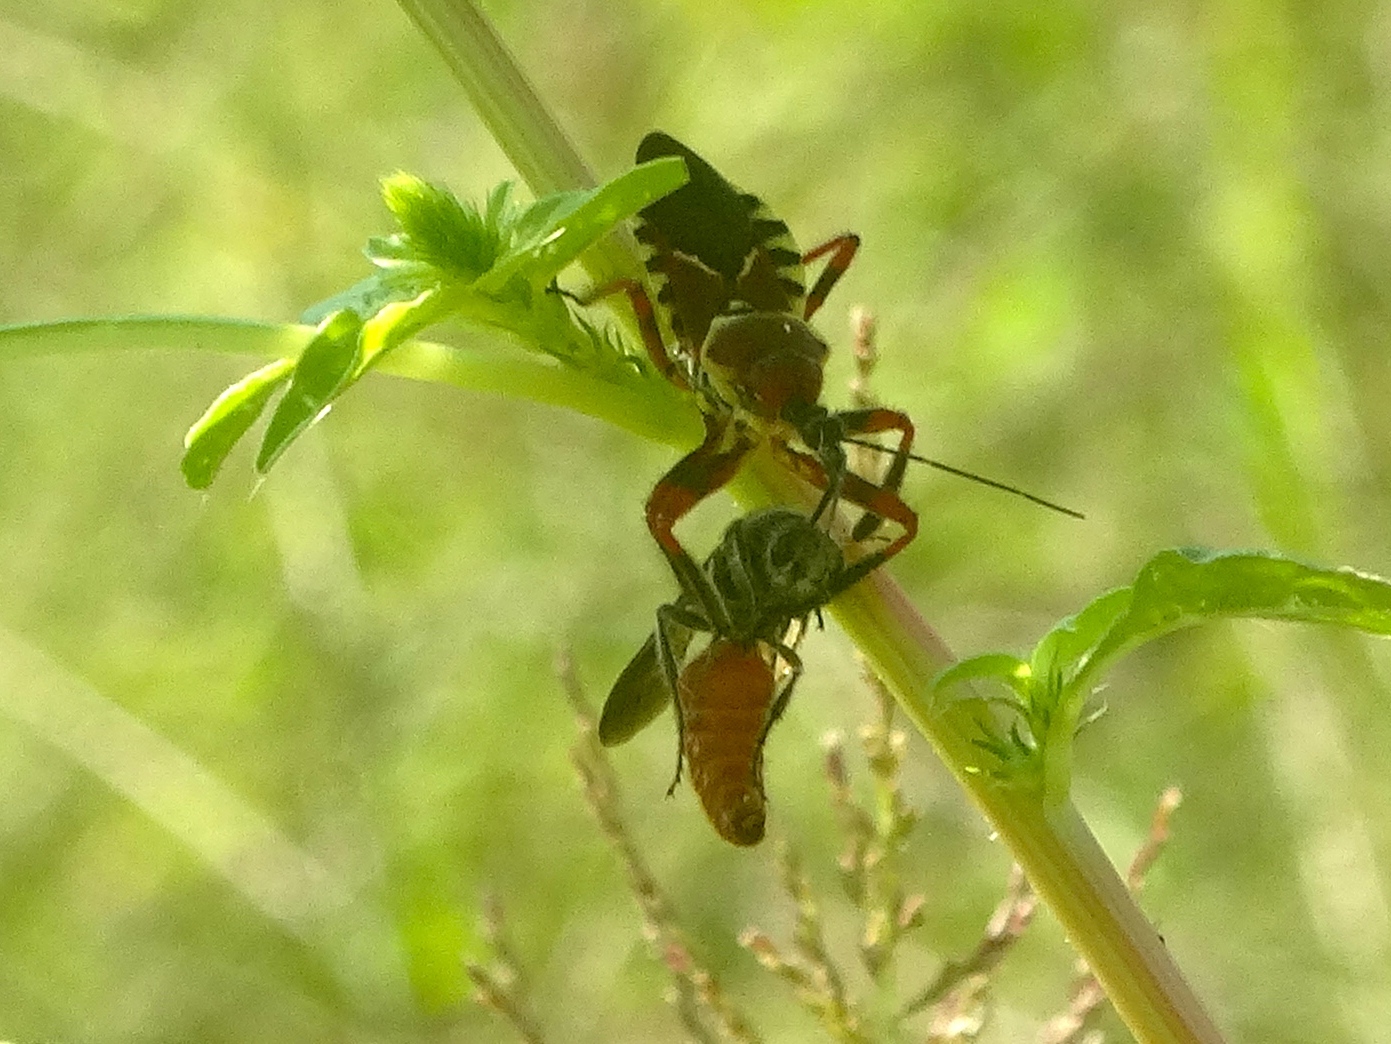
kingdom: Animalia
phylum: Arthropoda
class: Insecta
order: Hemiptera
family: Reduviidae
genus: Apiomerus
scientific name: Apiomerus
